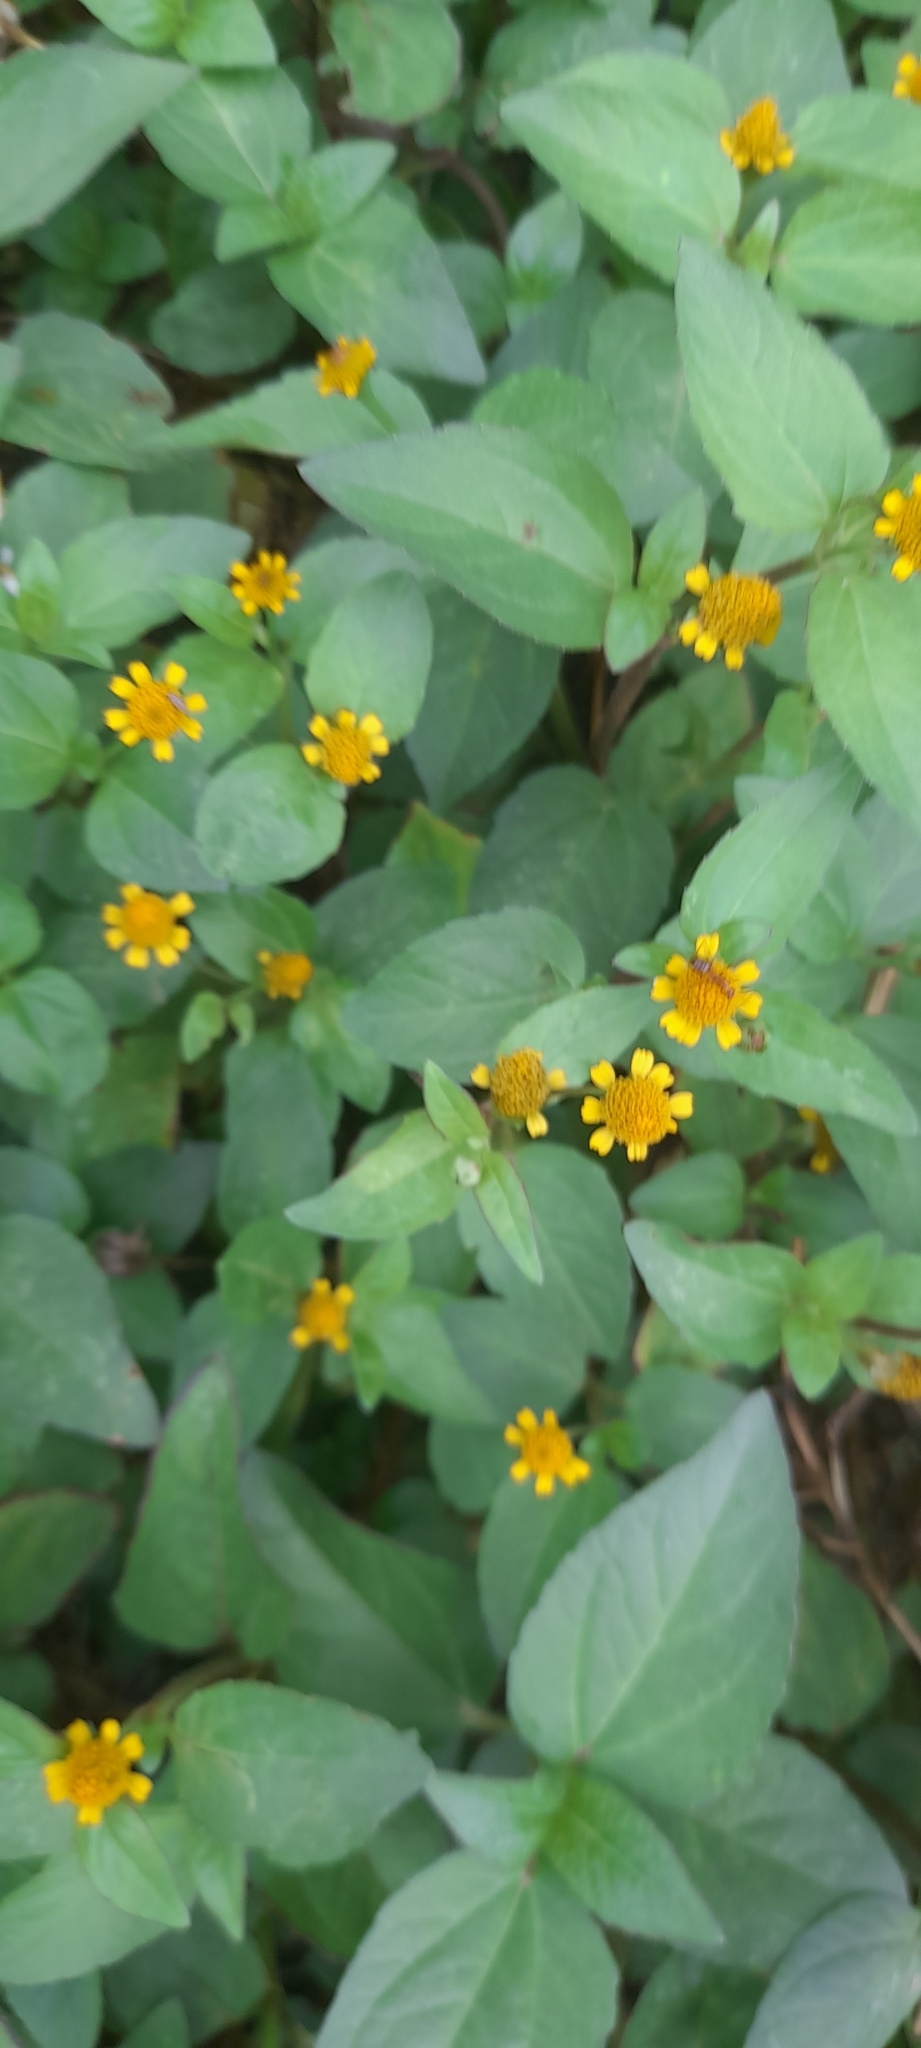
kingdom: Plantae
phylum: Tracheophyta
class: Magnoliopsida
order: Asterales
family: Asteraceae
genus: Acmella
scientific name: Acmella uliginosa
